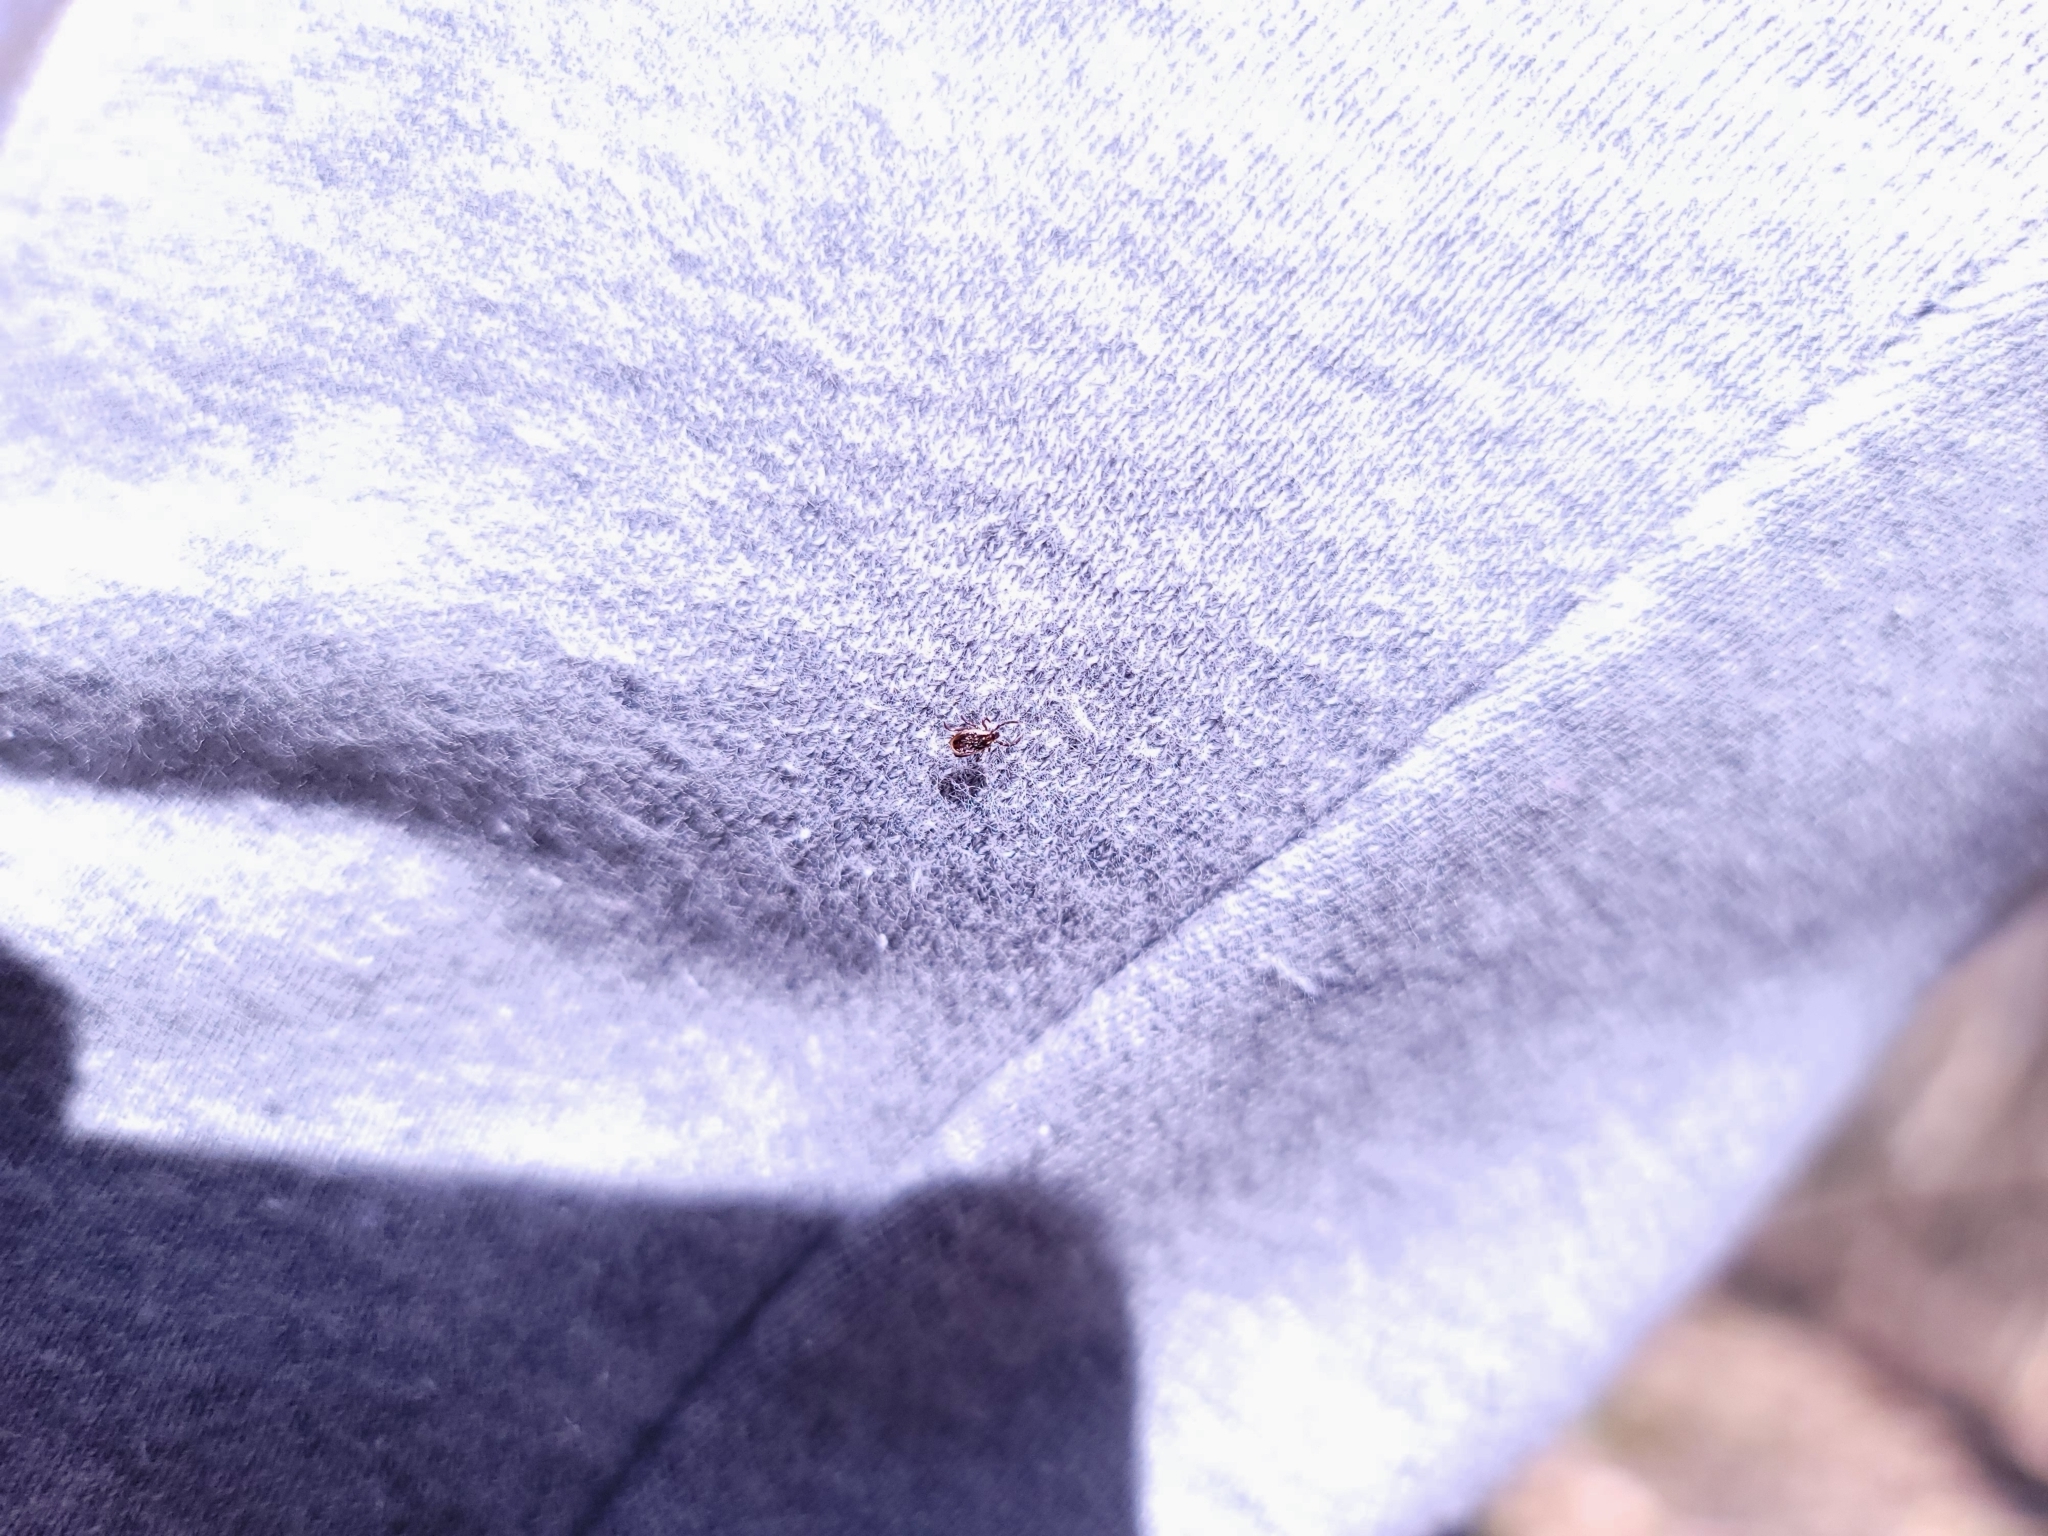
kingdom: Animalia
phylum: Arthropoda
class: Arachnida
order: Ixodida
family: Ixodidae
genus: Ixodes
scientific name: Ixodes scapularis
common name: Black legged tick
